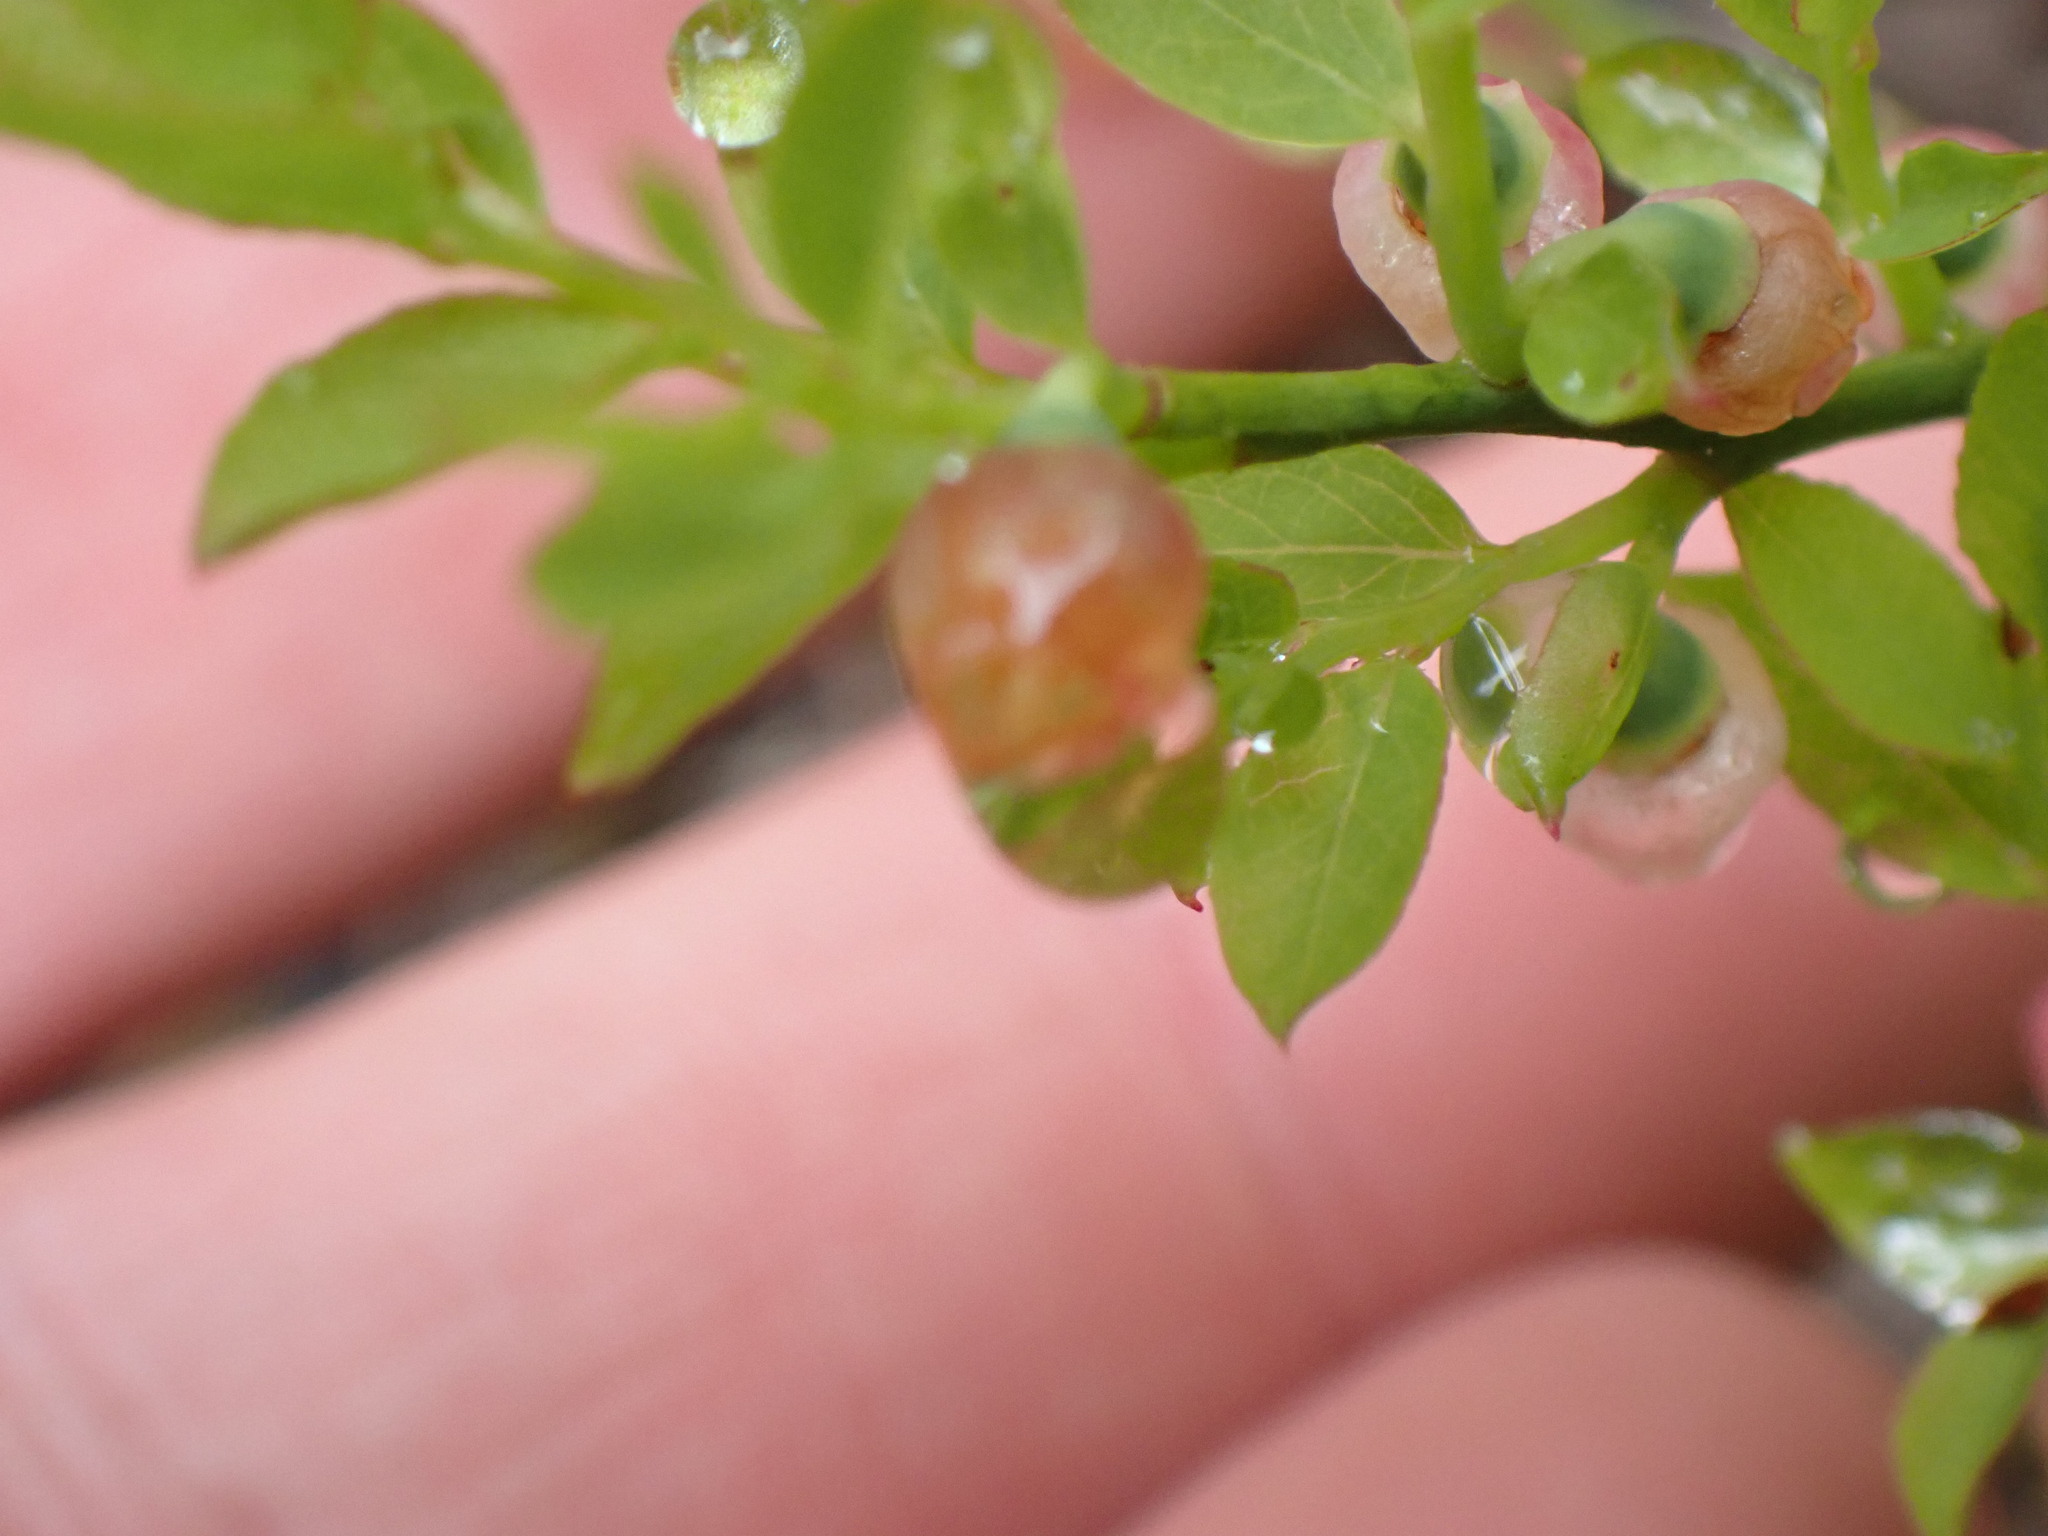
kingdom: Plantae
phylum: Tracheophyta
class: Magnoliopsida
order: Ericales
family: Ericaceae
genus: Vaccinium
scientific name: Vaccinium scoparium
